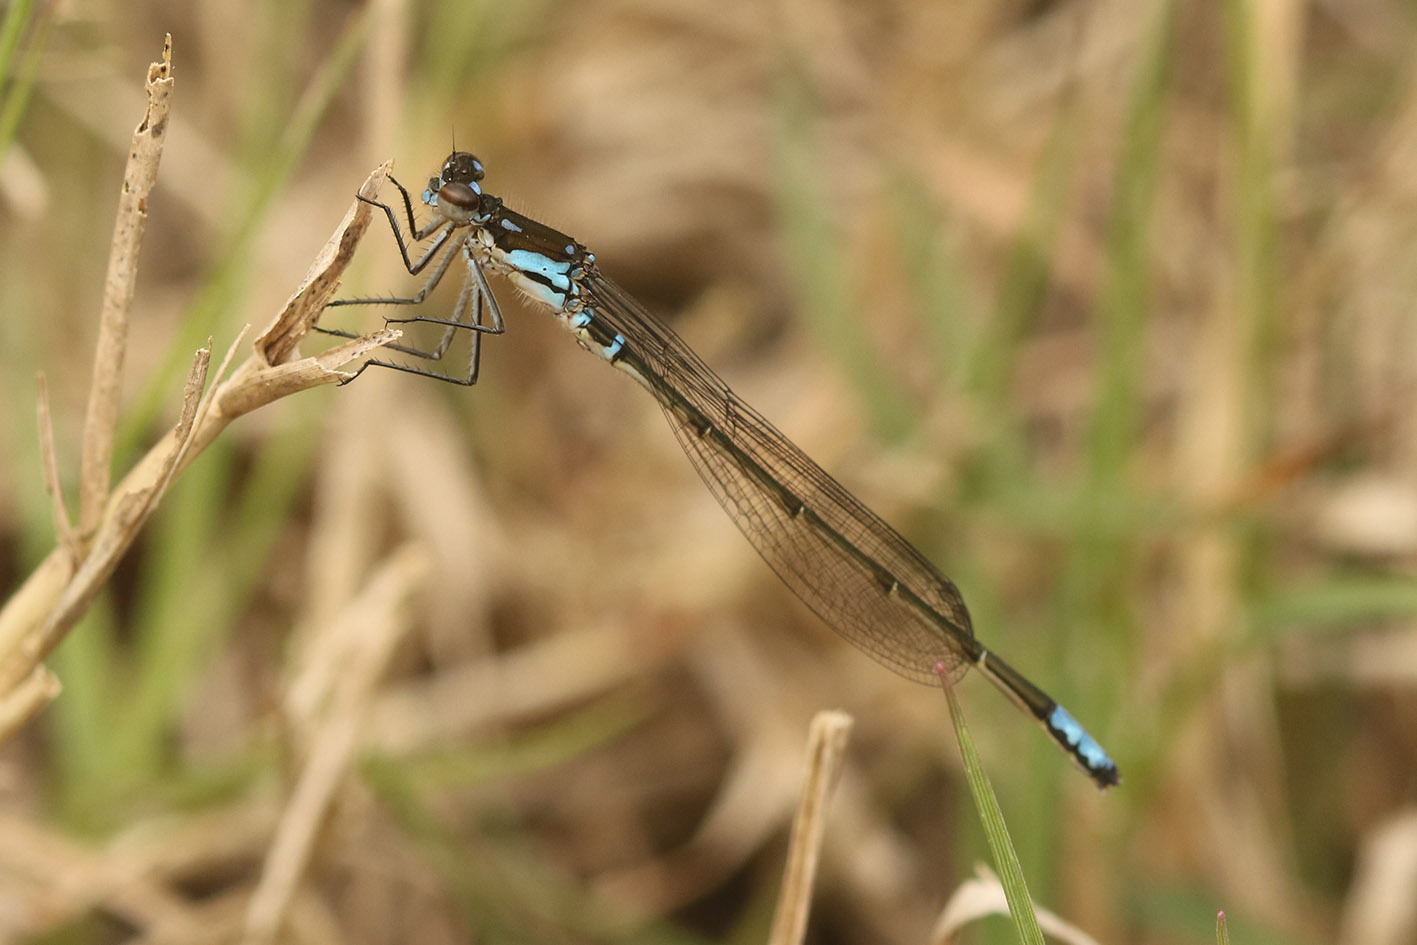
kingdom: Animalia
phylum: Arthropoda
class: Insecta
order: Odonata
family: Coenagrionidae
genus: Cyanallagma
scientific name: Cyanallagma bonariense
